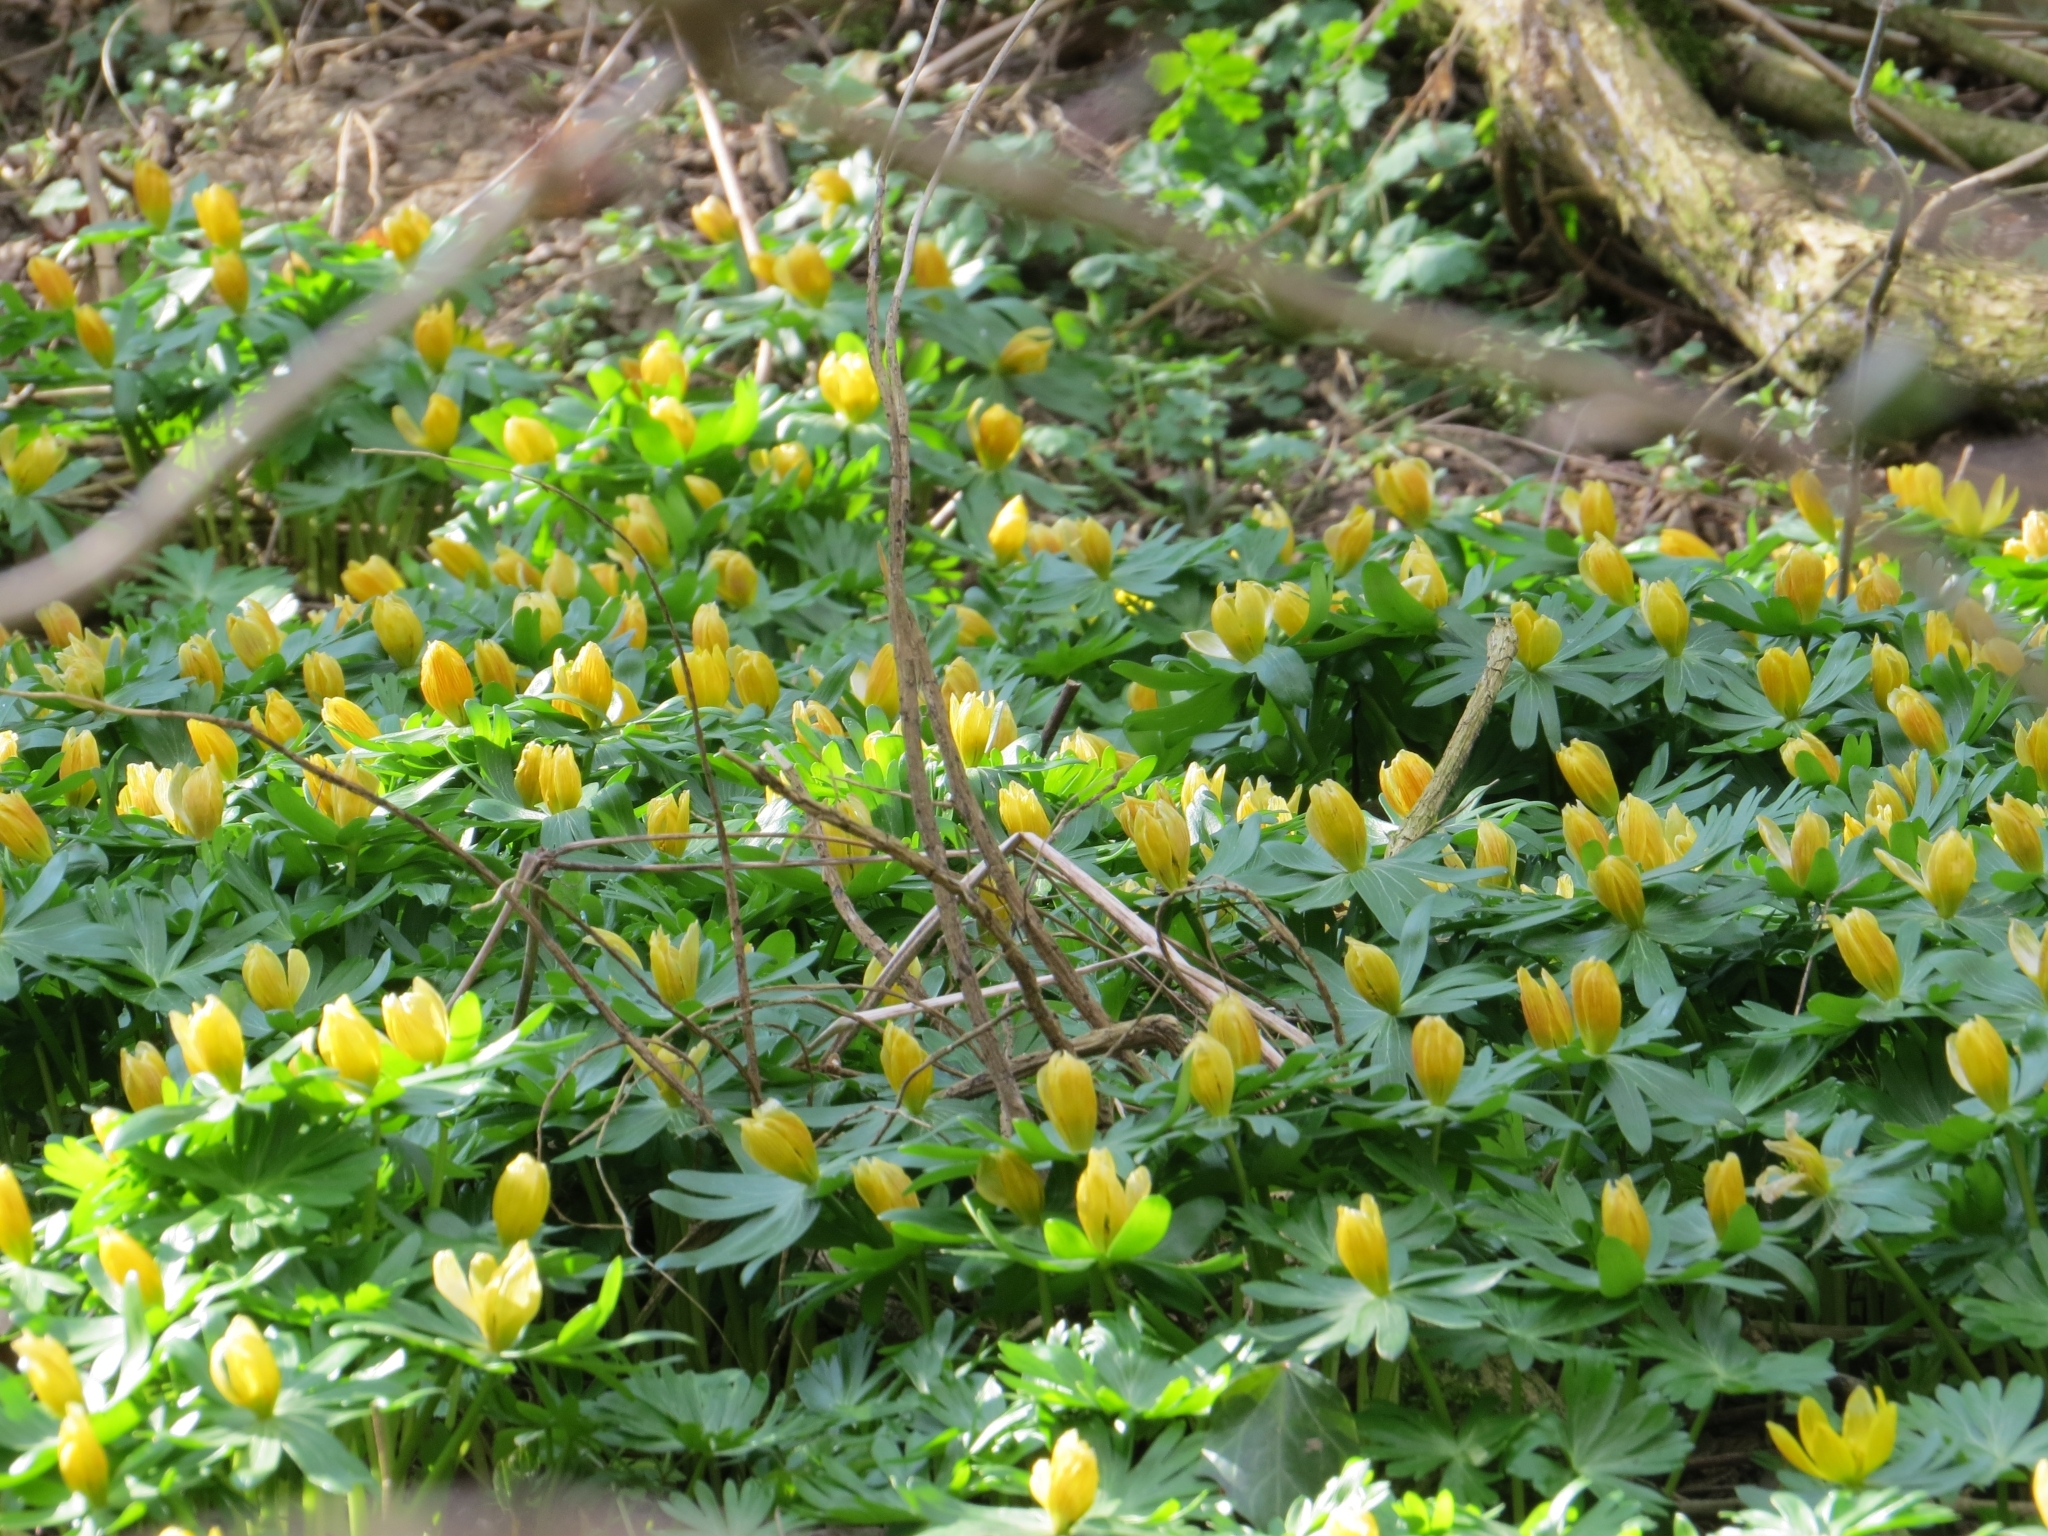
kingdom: Plantae
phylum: Tracheophyta
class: Magnoliopsida
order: Ranunculales
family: Ranunculaceae
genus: Eranthis
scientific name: Eranthis hyemalis
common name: Winter aconite
